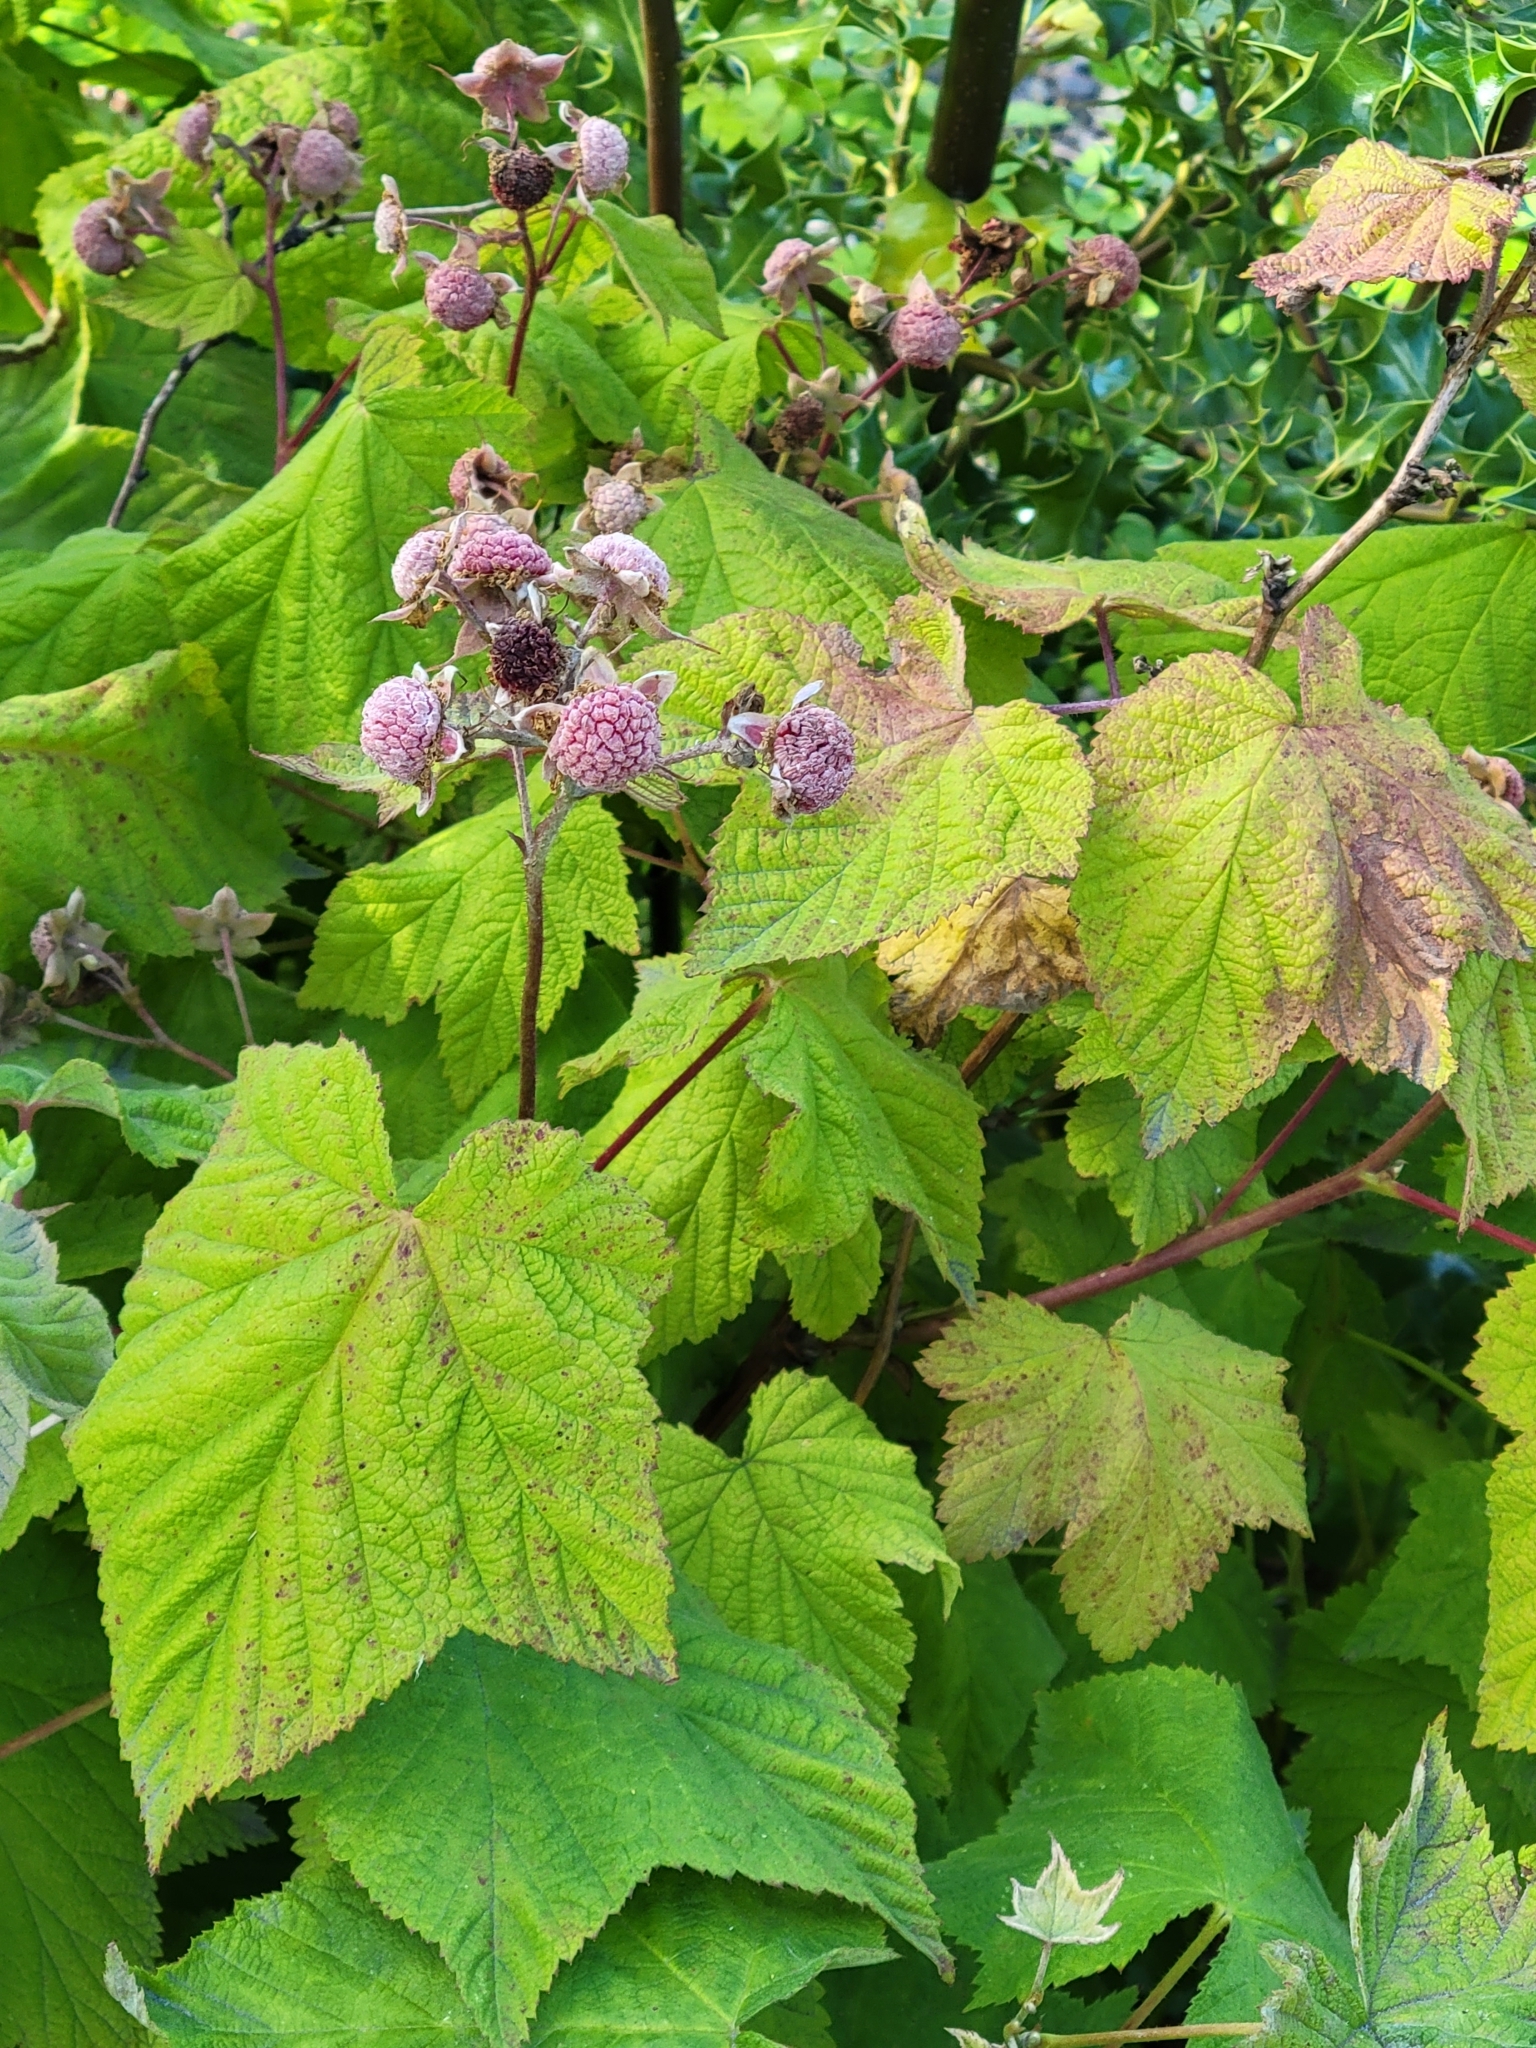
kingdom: Plantae
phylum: Tracheophyta
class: Magnoliopsida
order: Rosales
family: Rosaceae
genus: Rubus
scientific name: Rubus parviflorus
